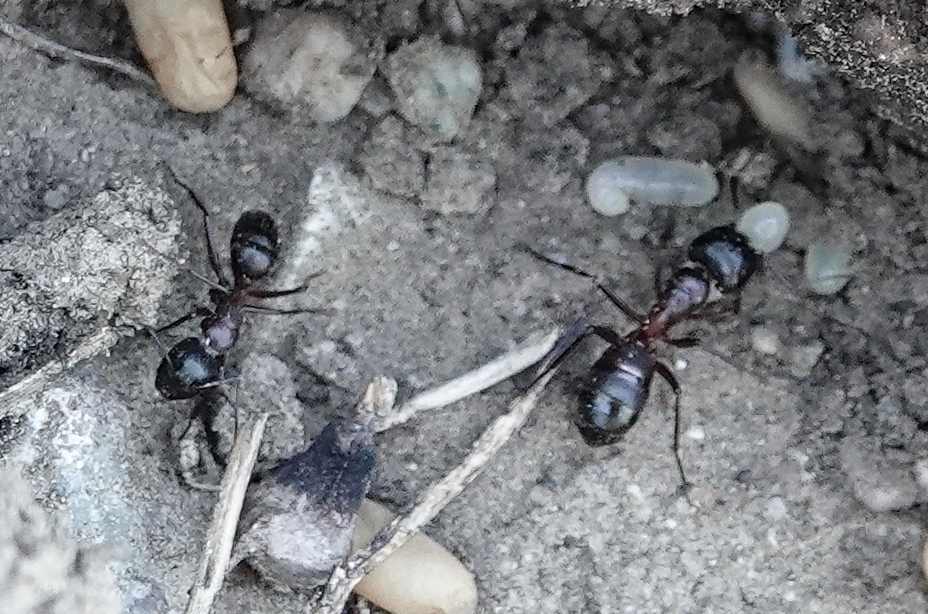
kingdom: Animalia
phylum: Arthropoda
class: Insecta
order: Hymenoptera
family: Formicidae
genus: Camponotus
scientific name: Camponotus vicinus
